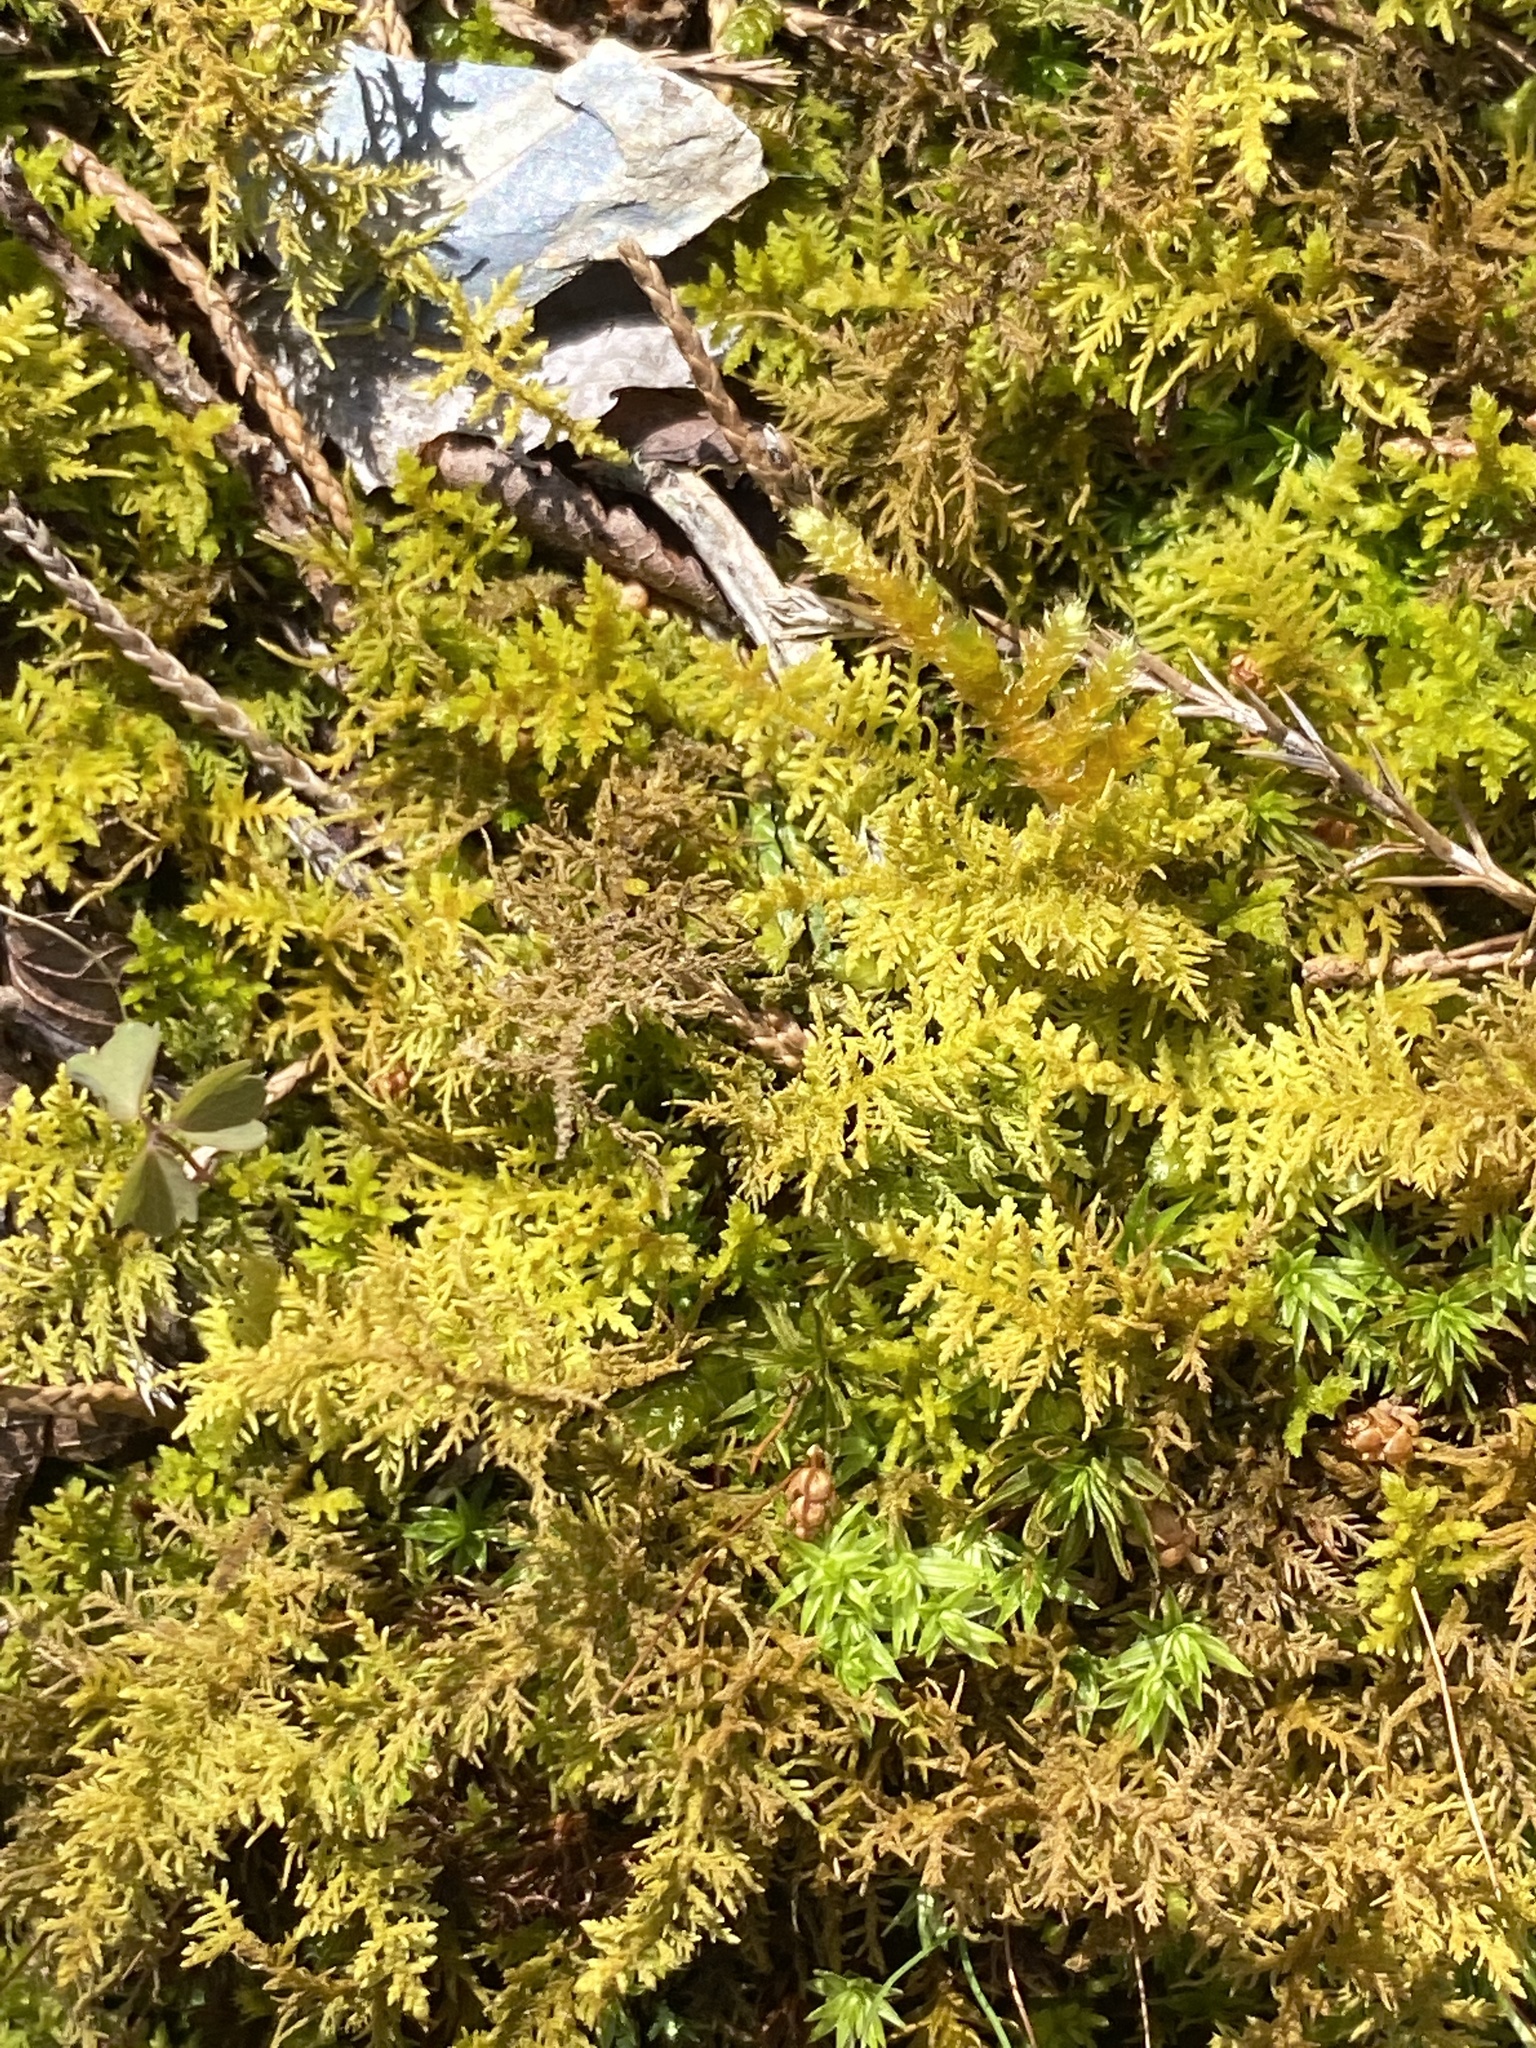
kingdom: Plantae
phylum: Bryophyta
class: Bryopsida
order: Hypnales
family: Thuidiaceae
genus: Thuidium
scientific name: Thuidium delicatulum
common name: Delicate fern moss
